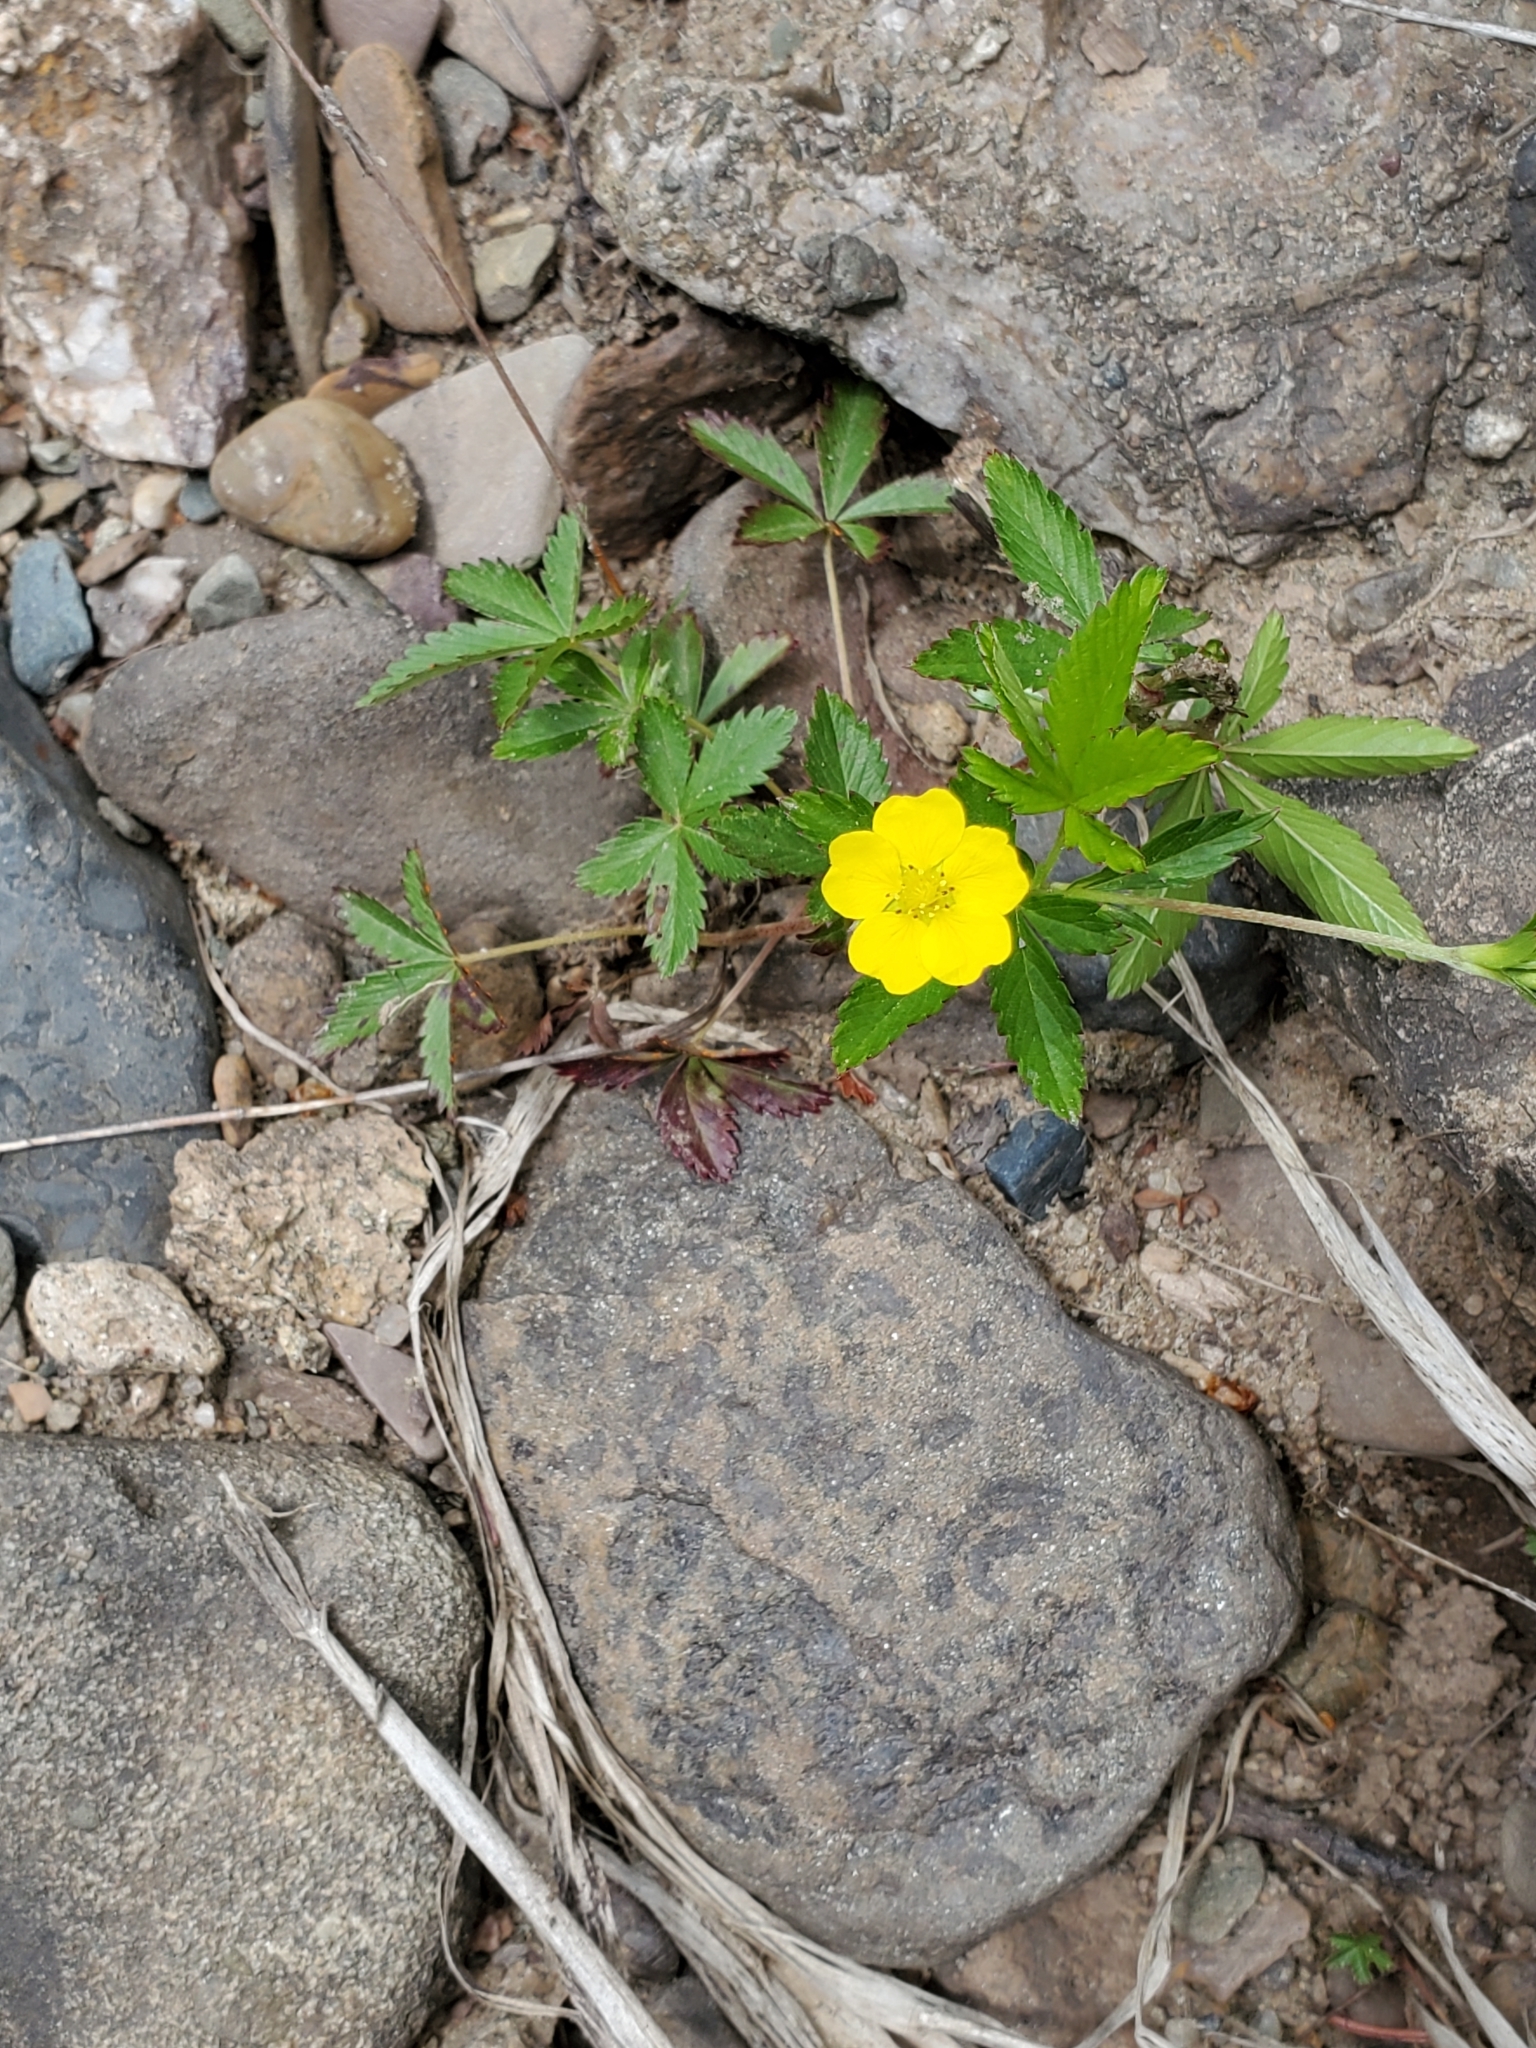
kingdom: Plantae
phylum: Tracheophyta
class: Magnoliopsida
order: Rosales
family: Rosaceae
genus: Potentilla
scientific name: Potentilla simplex
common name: Old field cinquefoil
